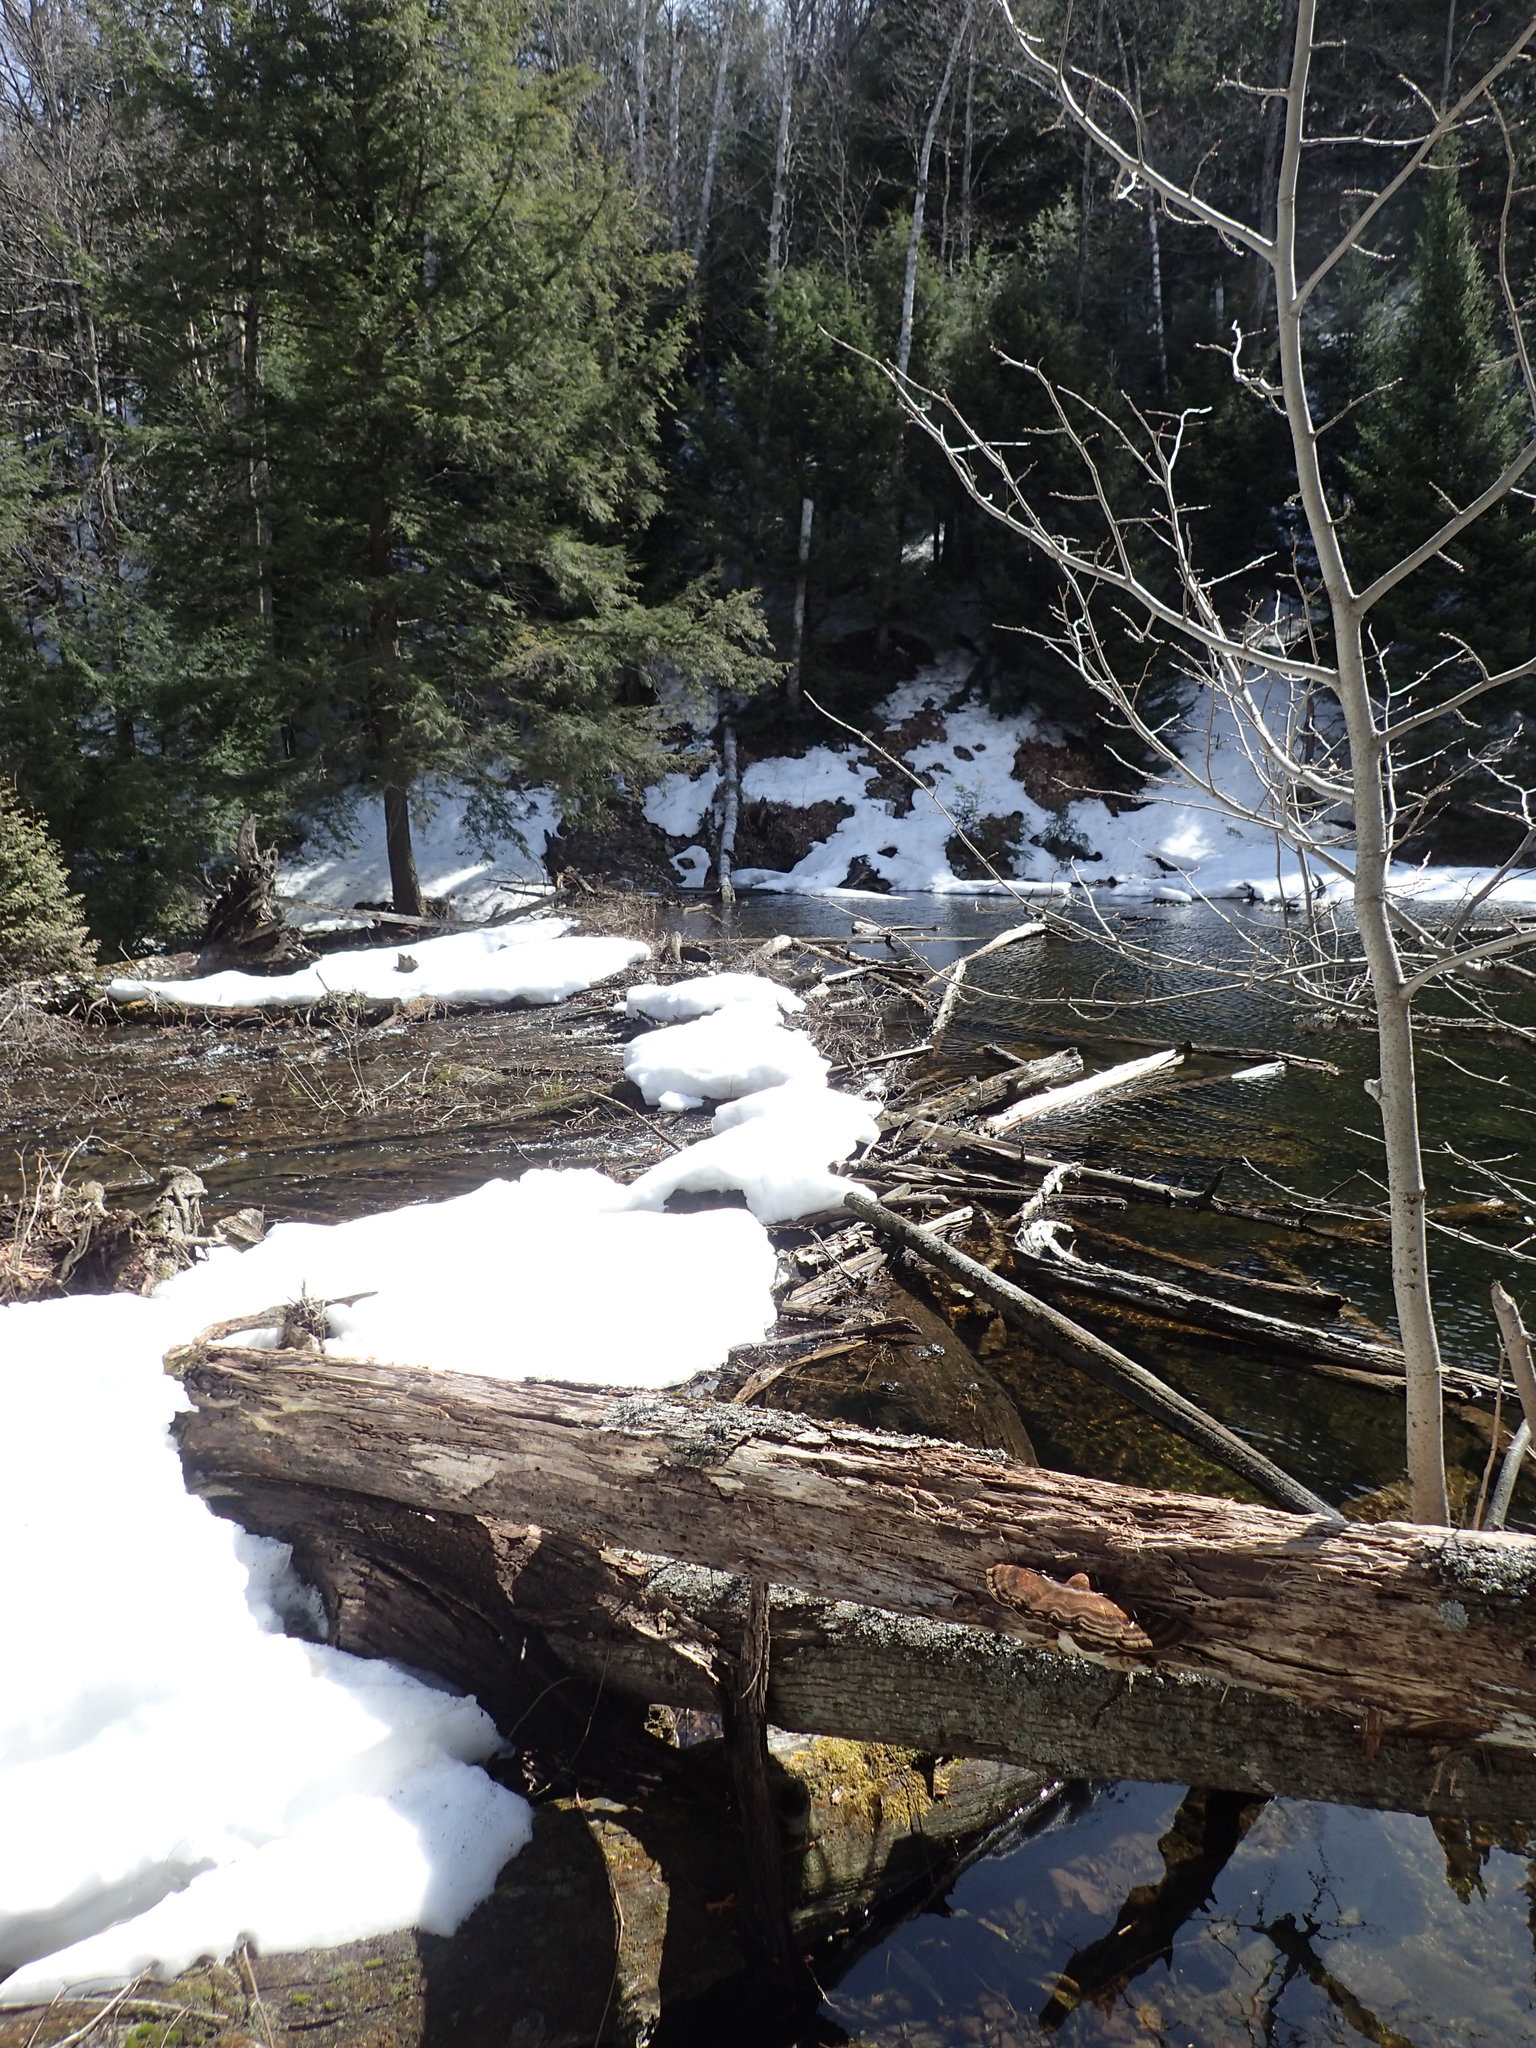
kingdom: Animalia
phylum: Chordata
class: Mammalia
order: Rodentia
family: Castoridae
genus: Castor
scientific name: Castor canadensis
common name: American beaver
